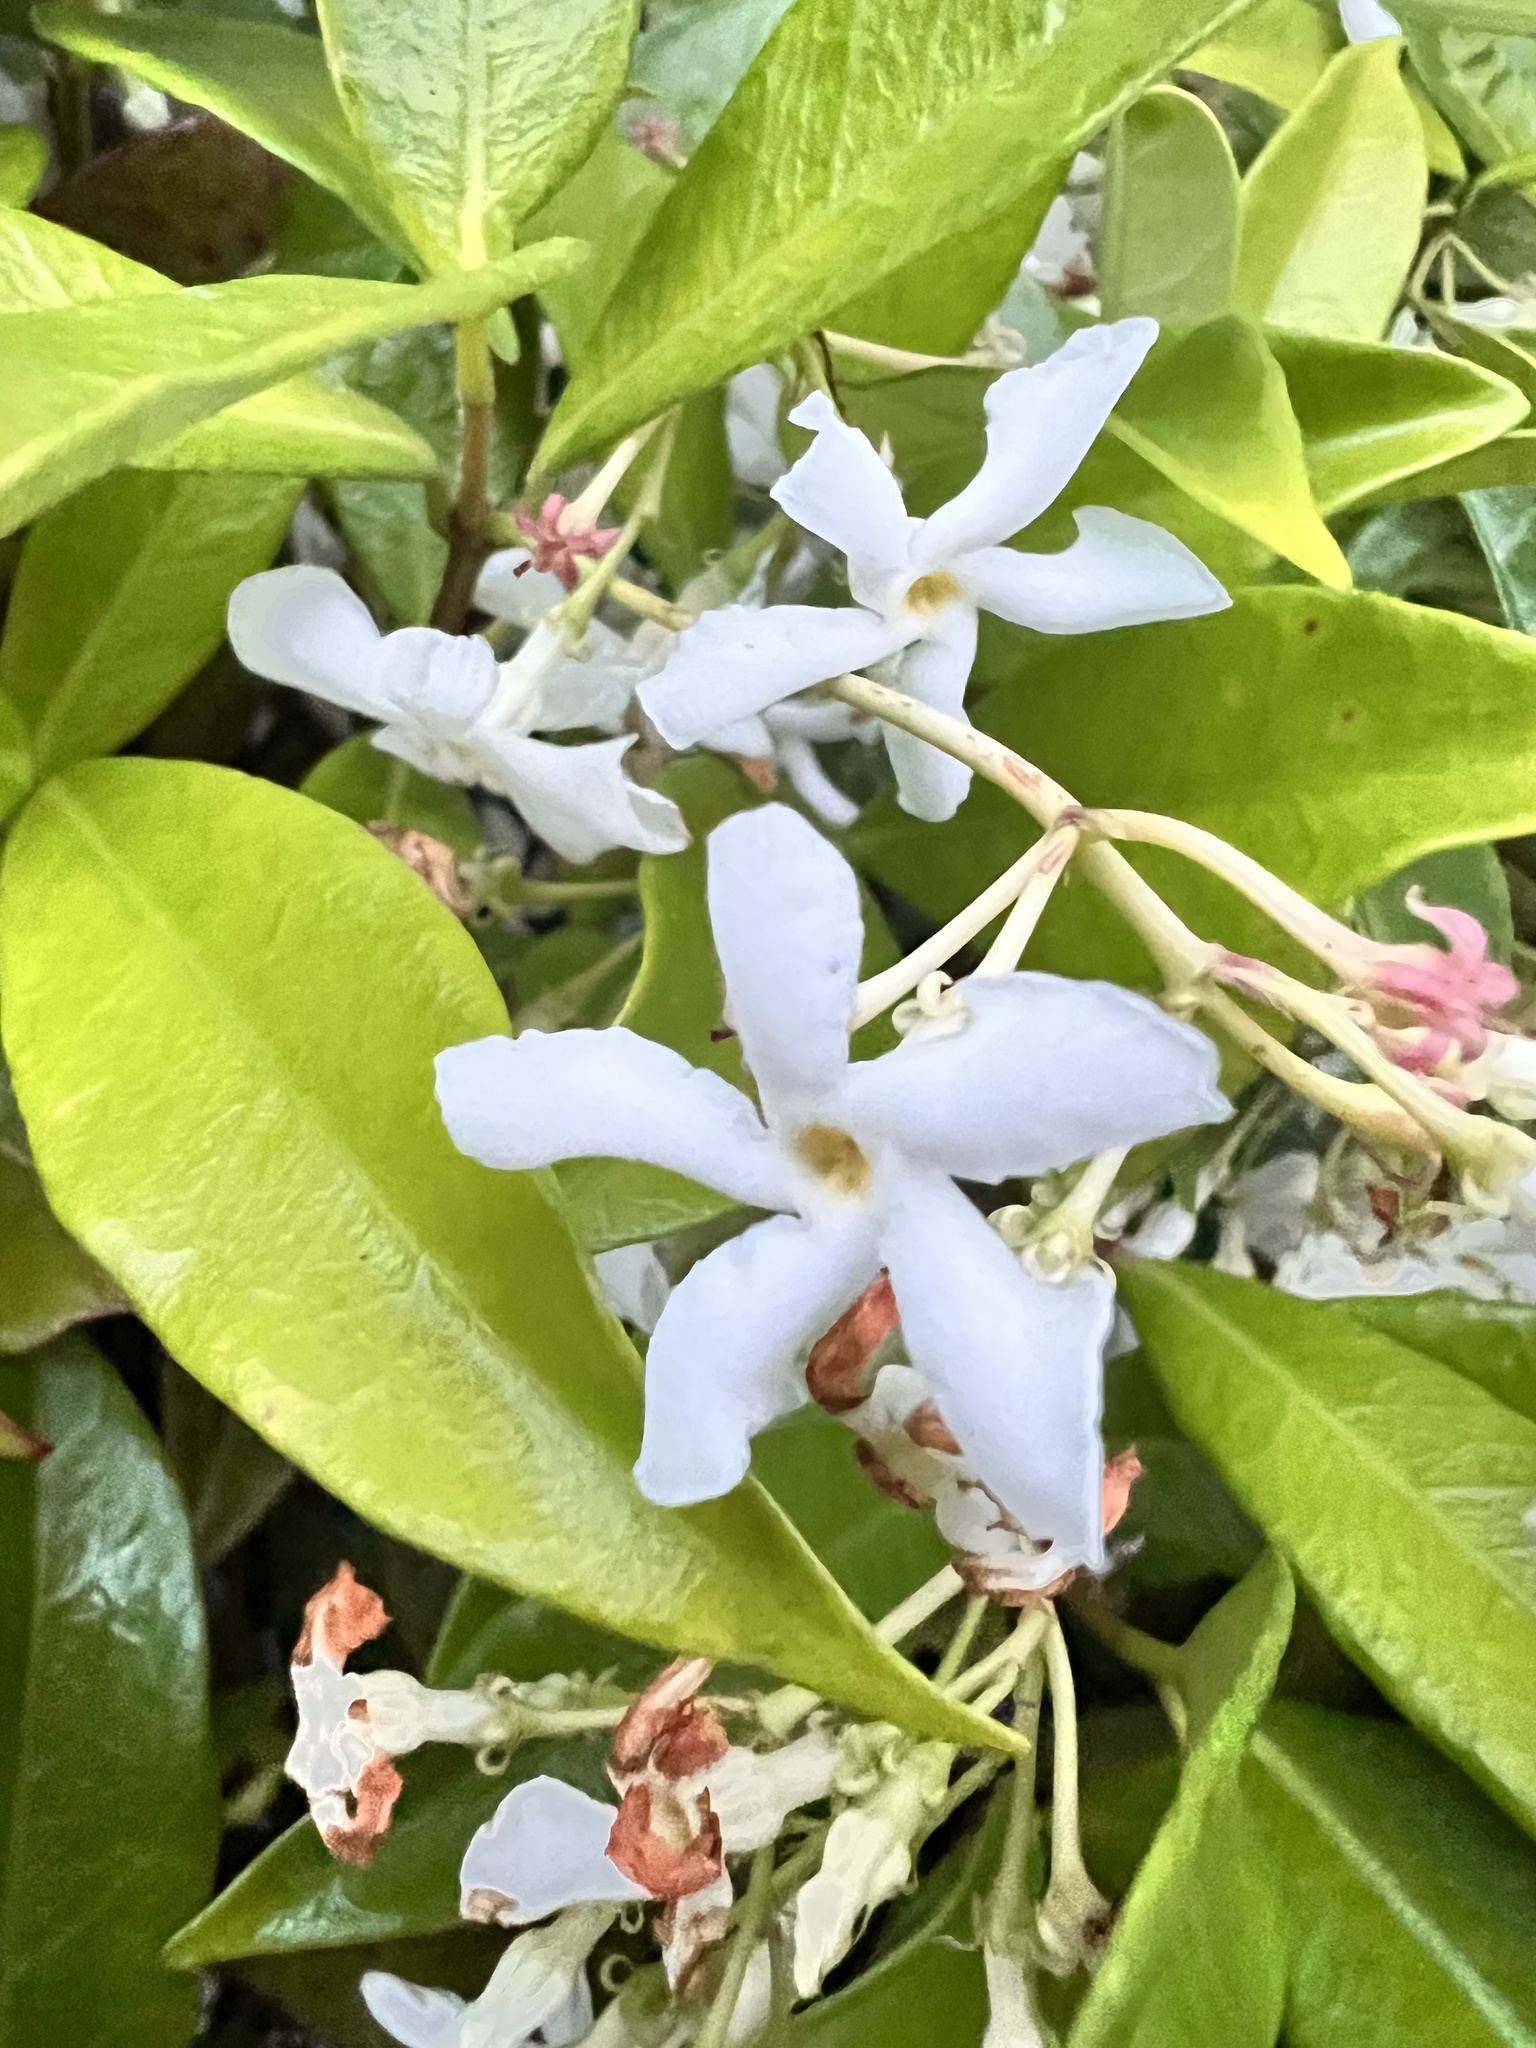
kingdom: Plantae
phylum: Tracheophyta
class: Magnoliopsida
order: Gentianales
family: Apocynaceae
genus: Trachelospermum
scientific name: Trachelospermum jasminoides
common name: Confederate jasmine
